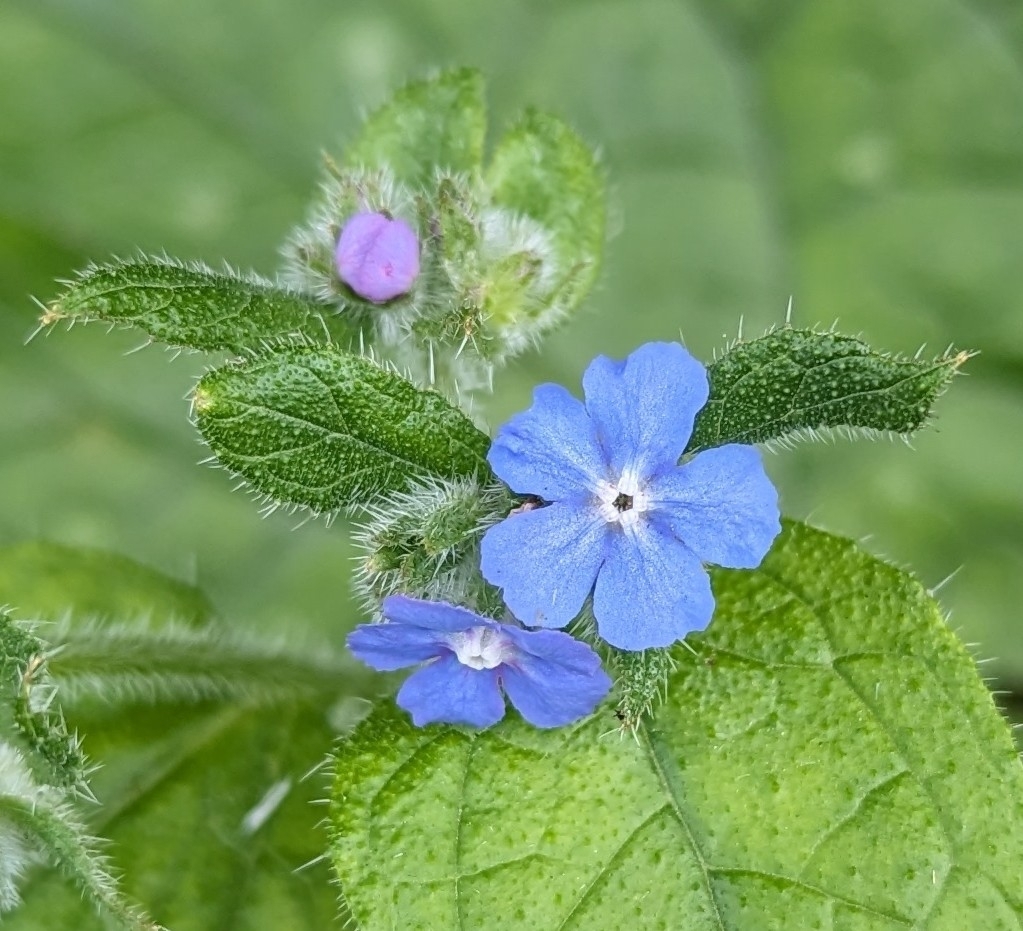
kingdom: Plantae
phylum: Tracheophyta
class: Magnoliopsida
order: Boraginales
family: Boraginaceae
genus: Pentaglottis
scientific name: Pentaglottis sempervirens
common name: Green alkanet
